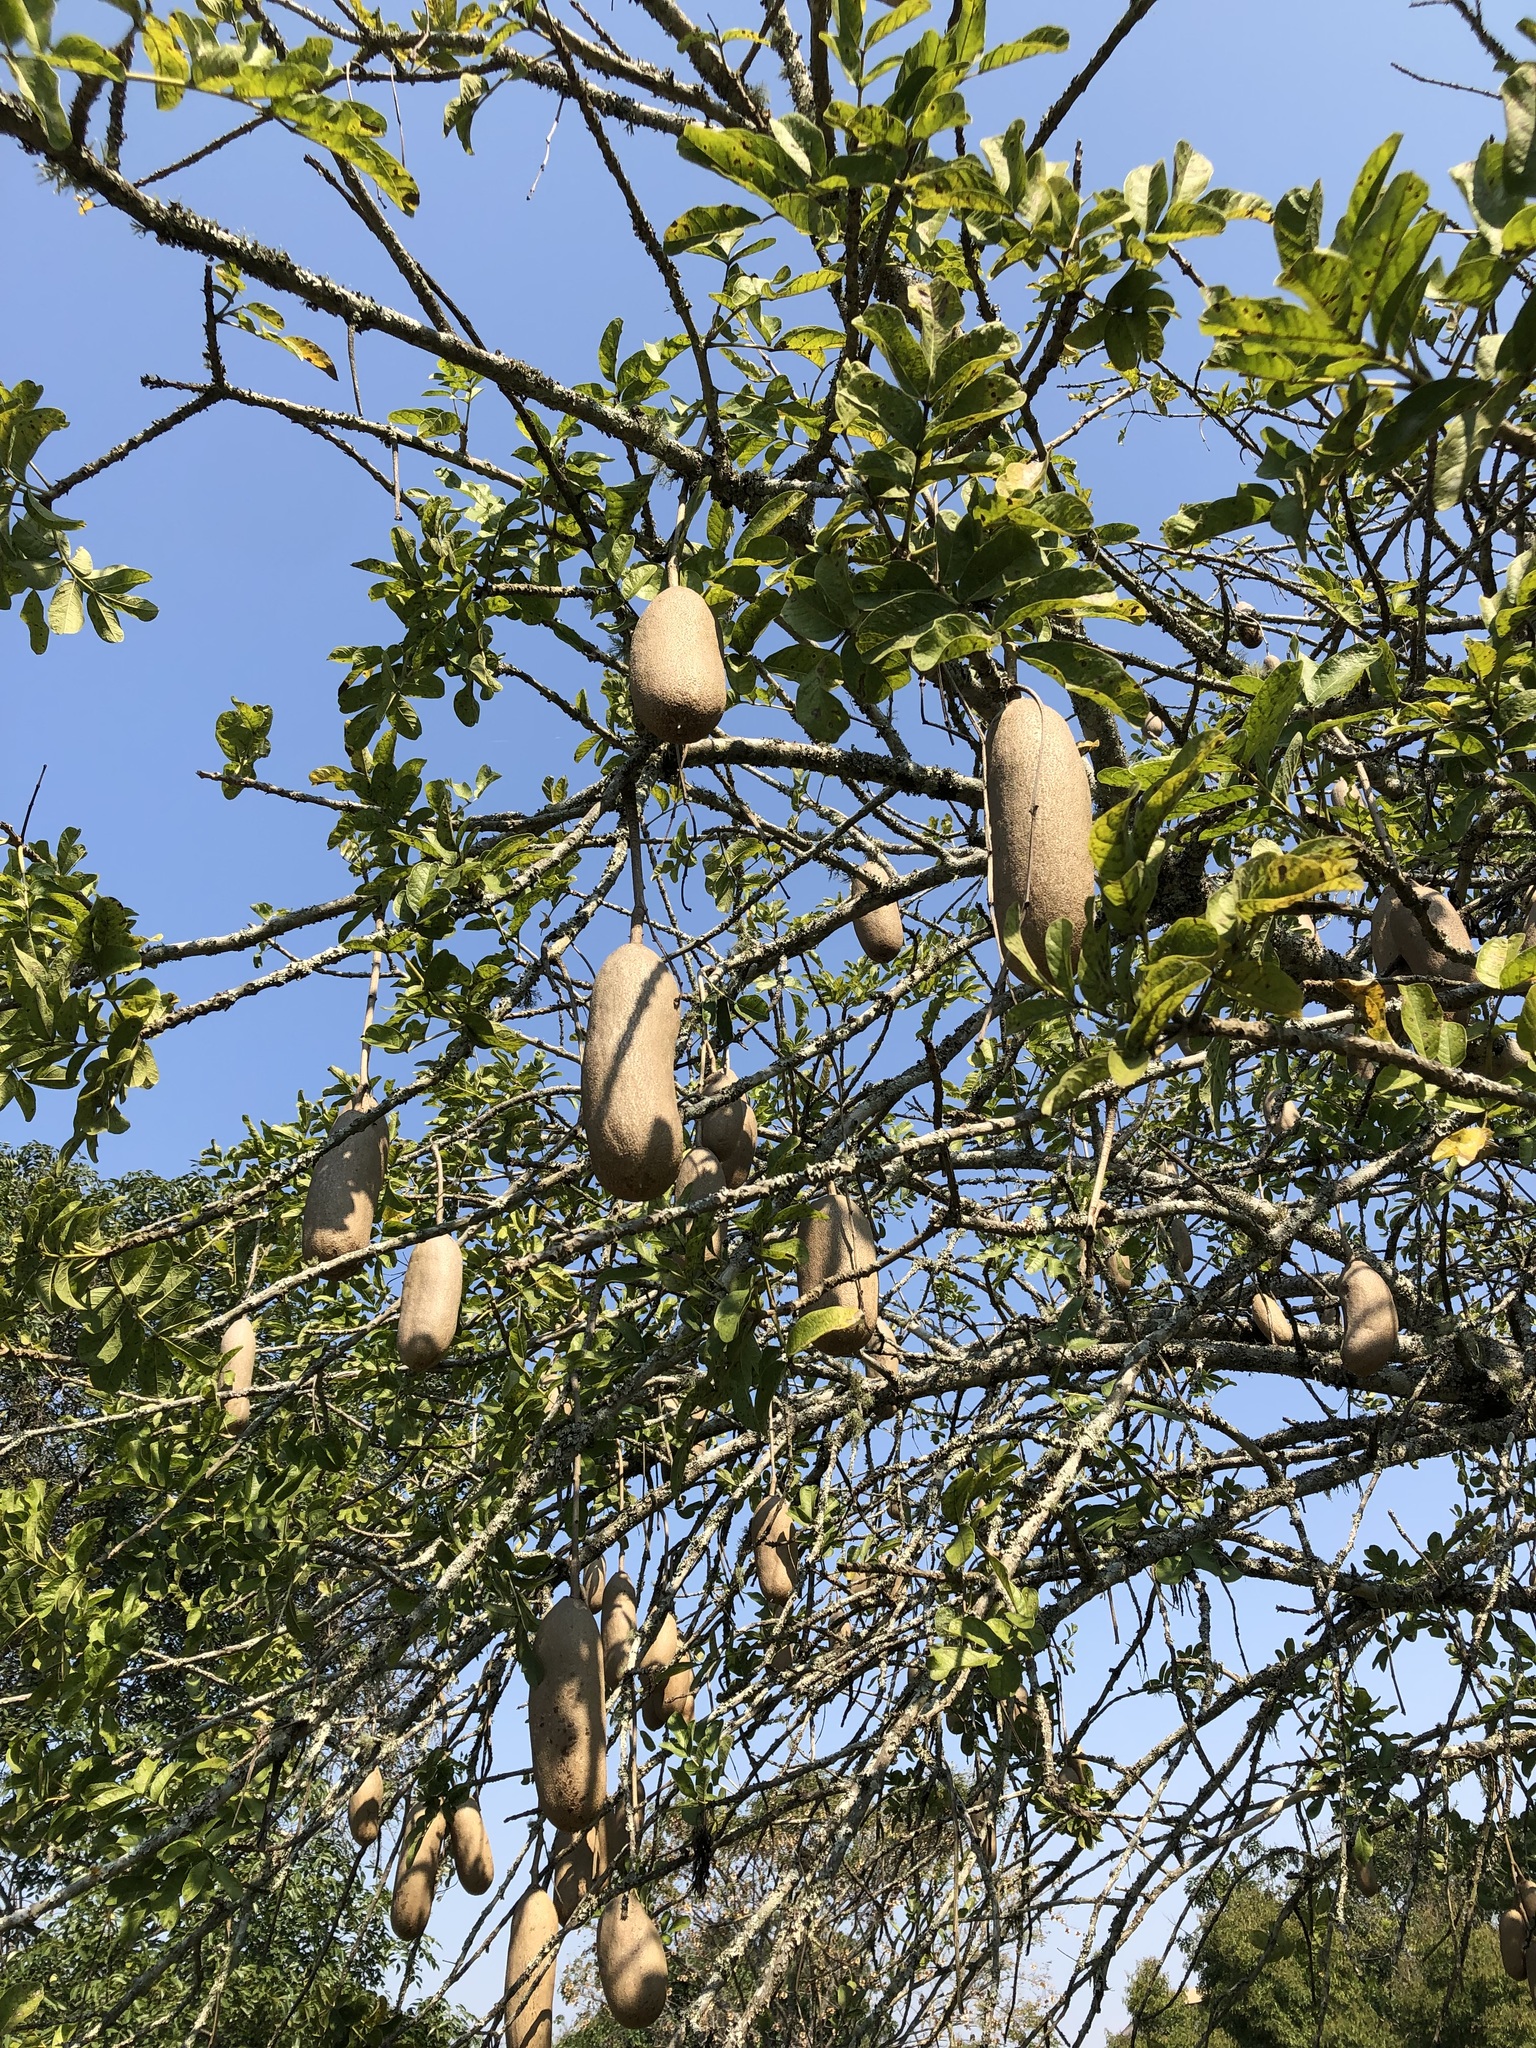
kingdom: Plantae
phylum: Tracheophyta
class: Magnoliopsida
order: Lamiales
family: Bignoniaceae
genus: Kigelia
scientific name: Kigelia africana
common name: Sausage tree
